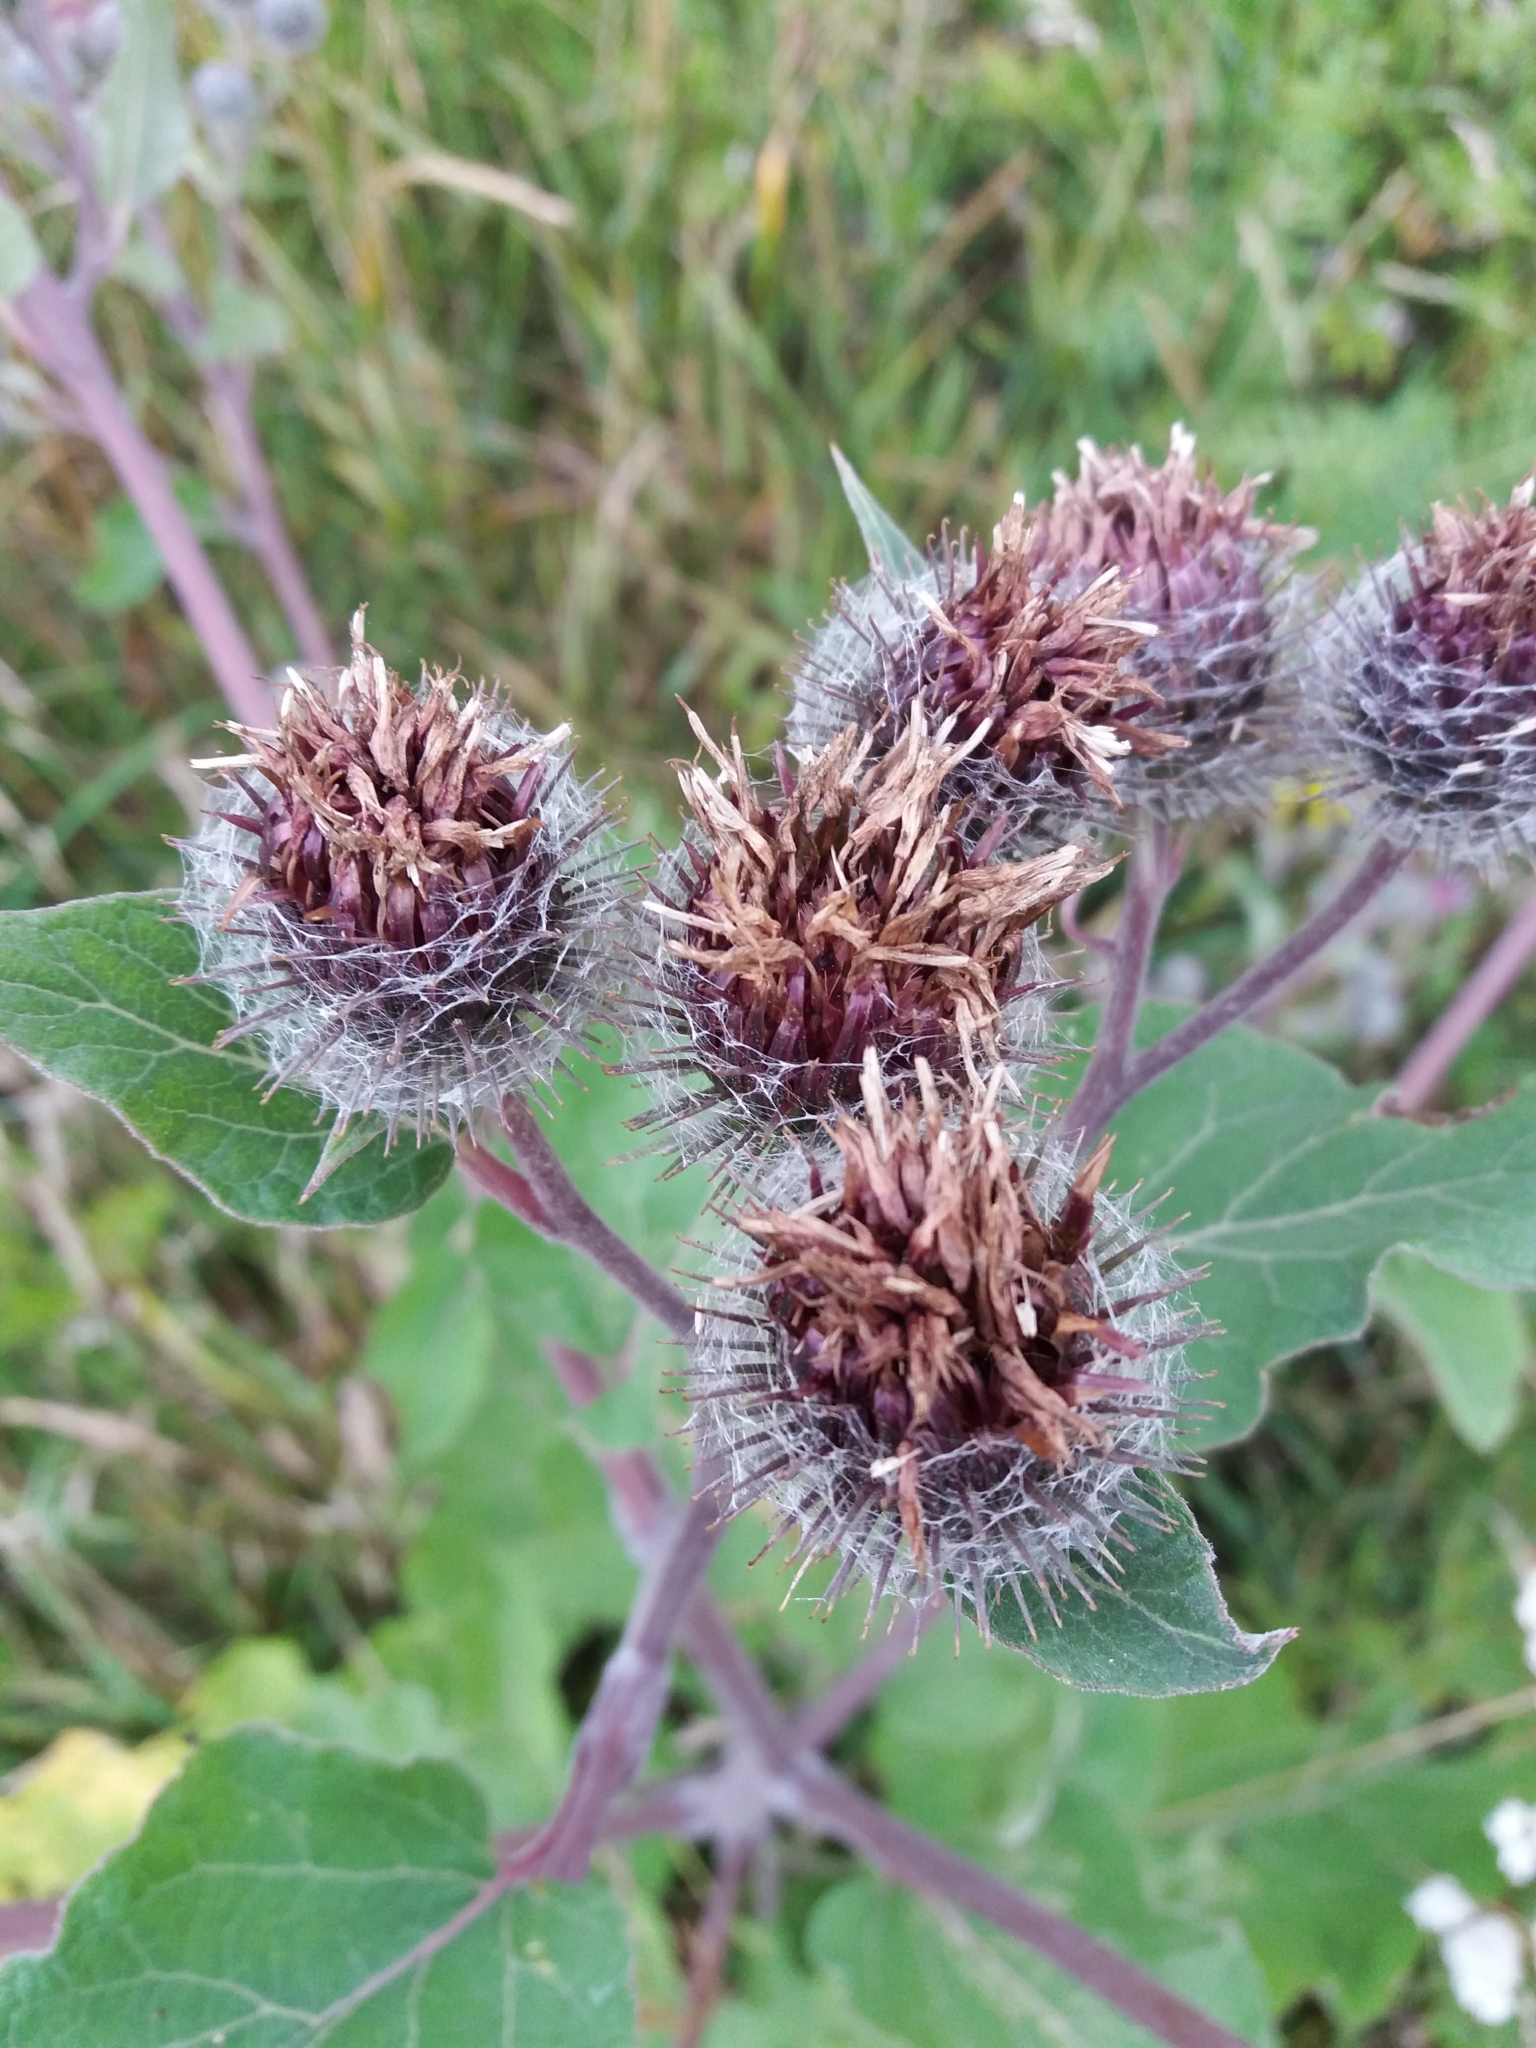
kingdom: Plantae
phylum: Tracheophyta
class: Magnoliopsida
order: Asterales
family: Asteraceae
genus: Arctium
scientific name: Arctium tomentosum
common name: Woolly burdock
